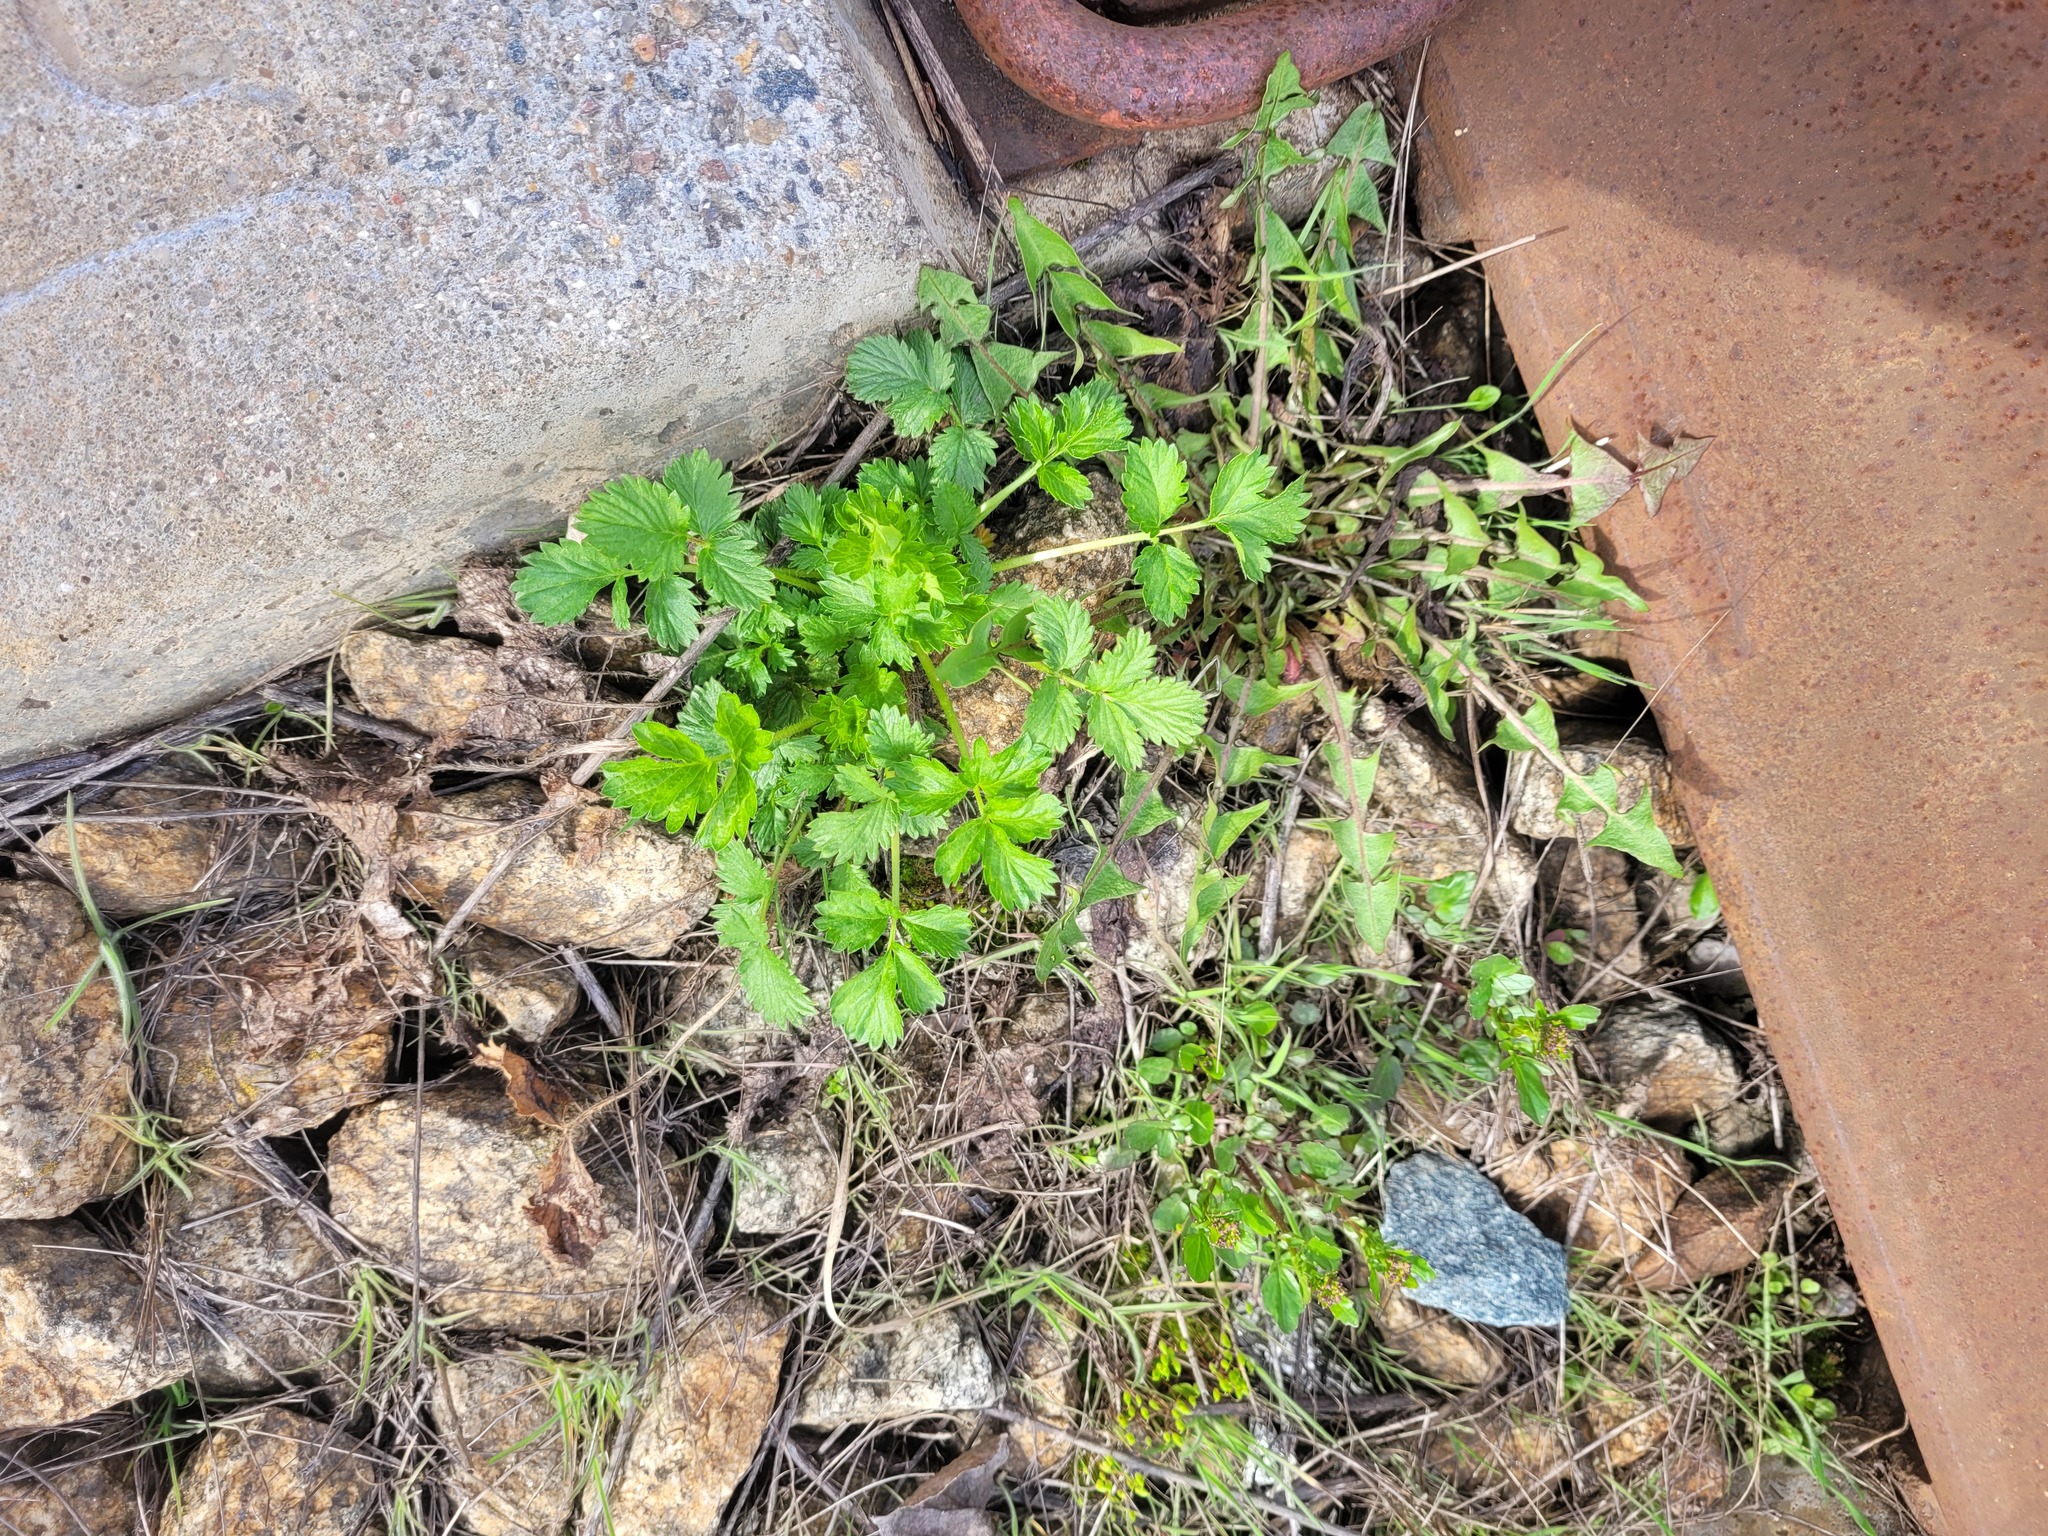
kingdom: Plantae
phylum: Tracheophyta
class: Magnoliopsida
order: Rosales
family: Rosaceae
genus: Potentilla
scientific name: Potentilla norvegica
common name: Ternate-leaved cinquefoil
